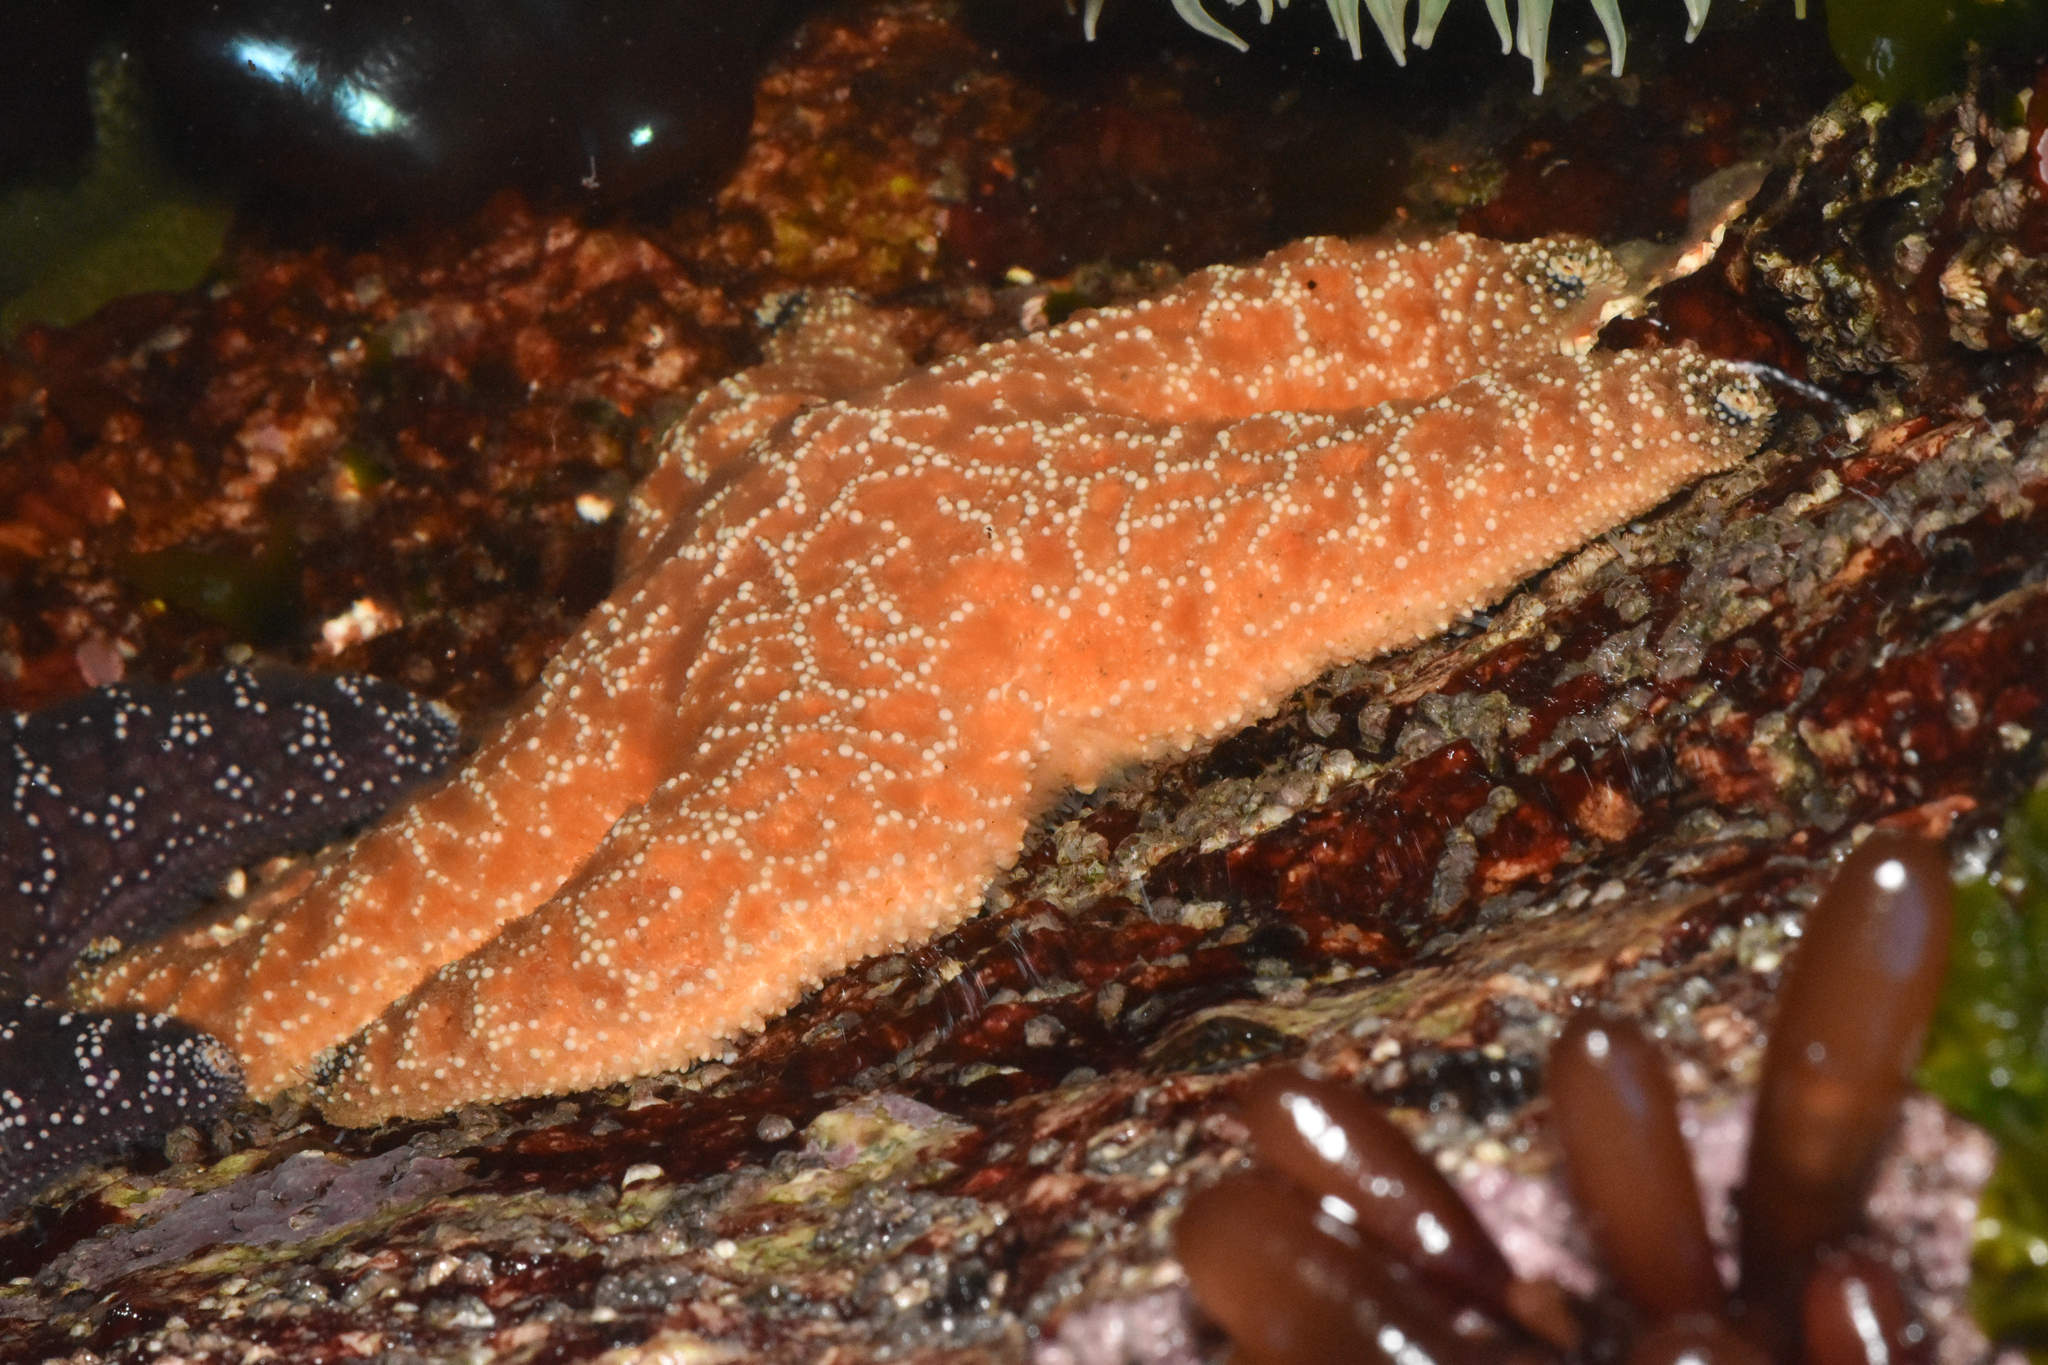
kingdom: Animalia
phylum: Echinodermata
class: Asteroidea
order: Forcipulatida
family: Asteriidae
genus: Pisaster
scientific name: Pisaster ochraceus
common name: Ochre stars
